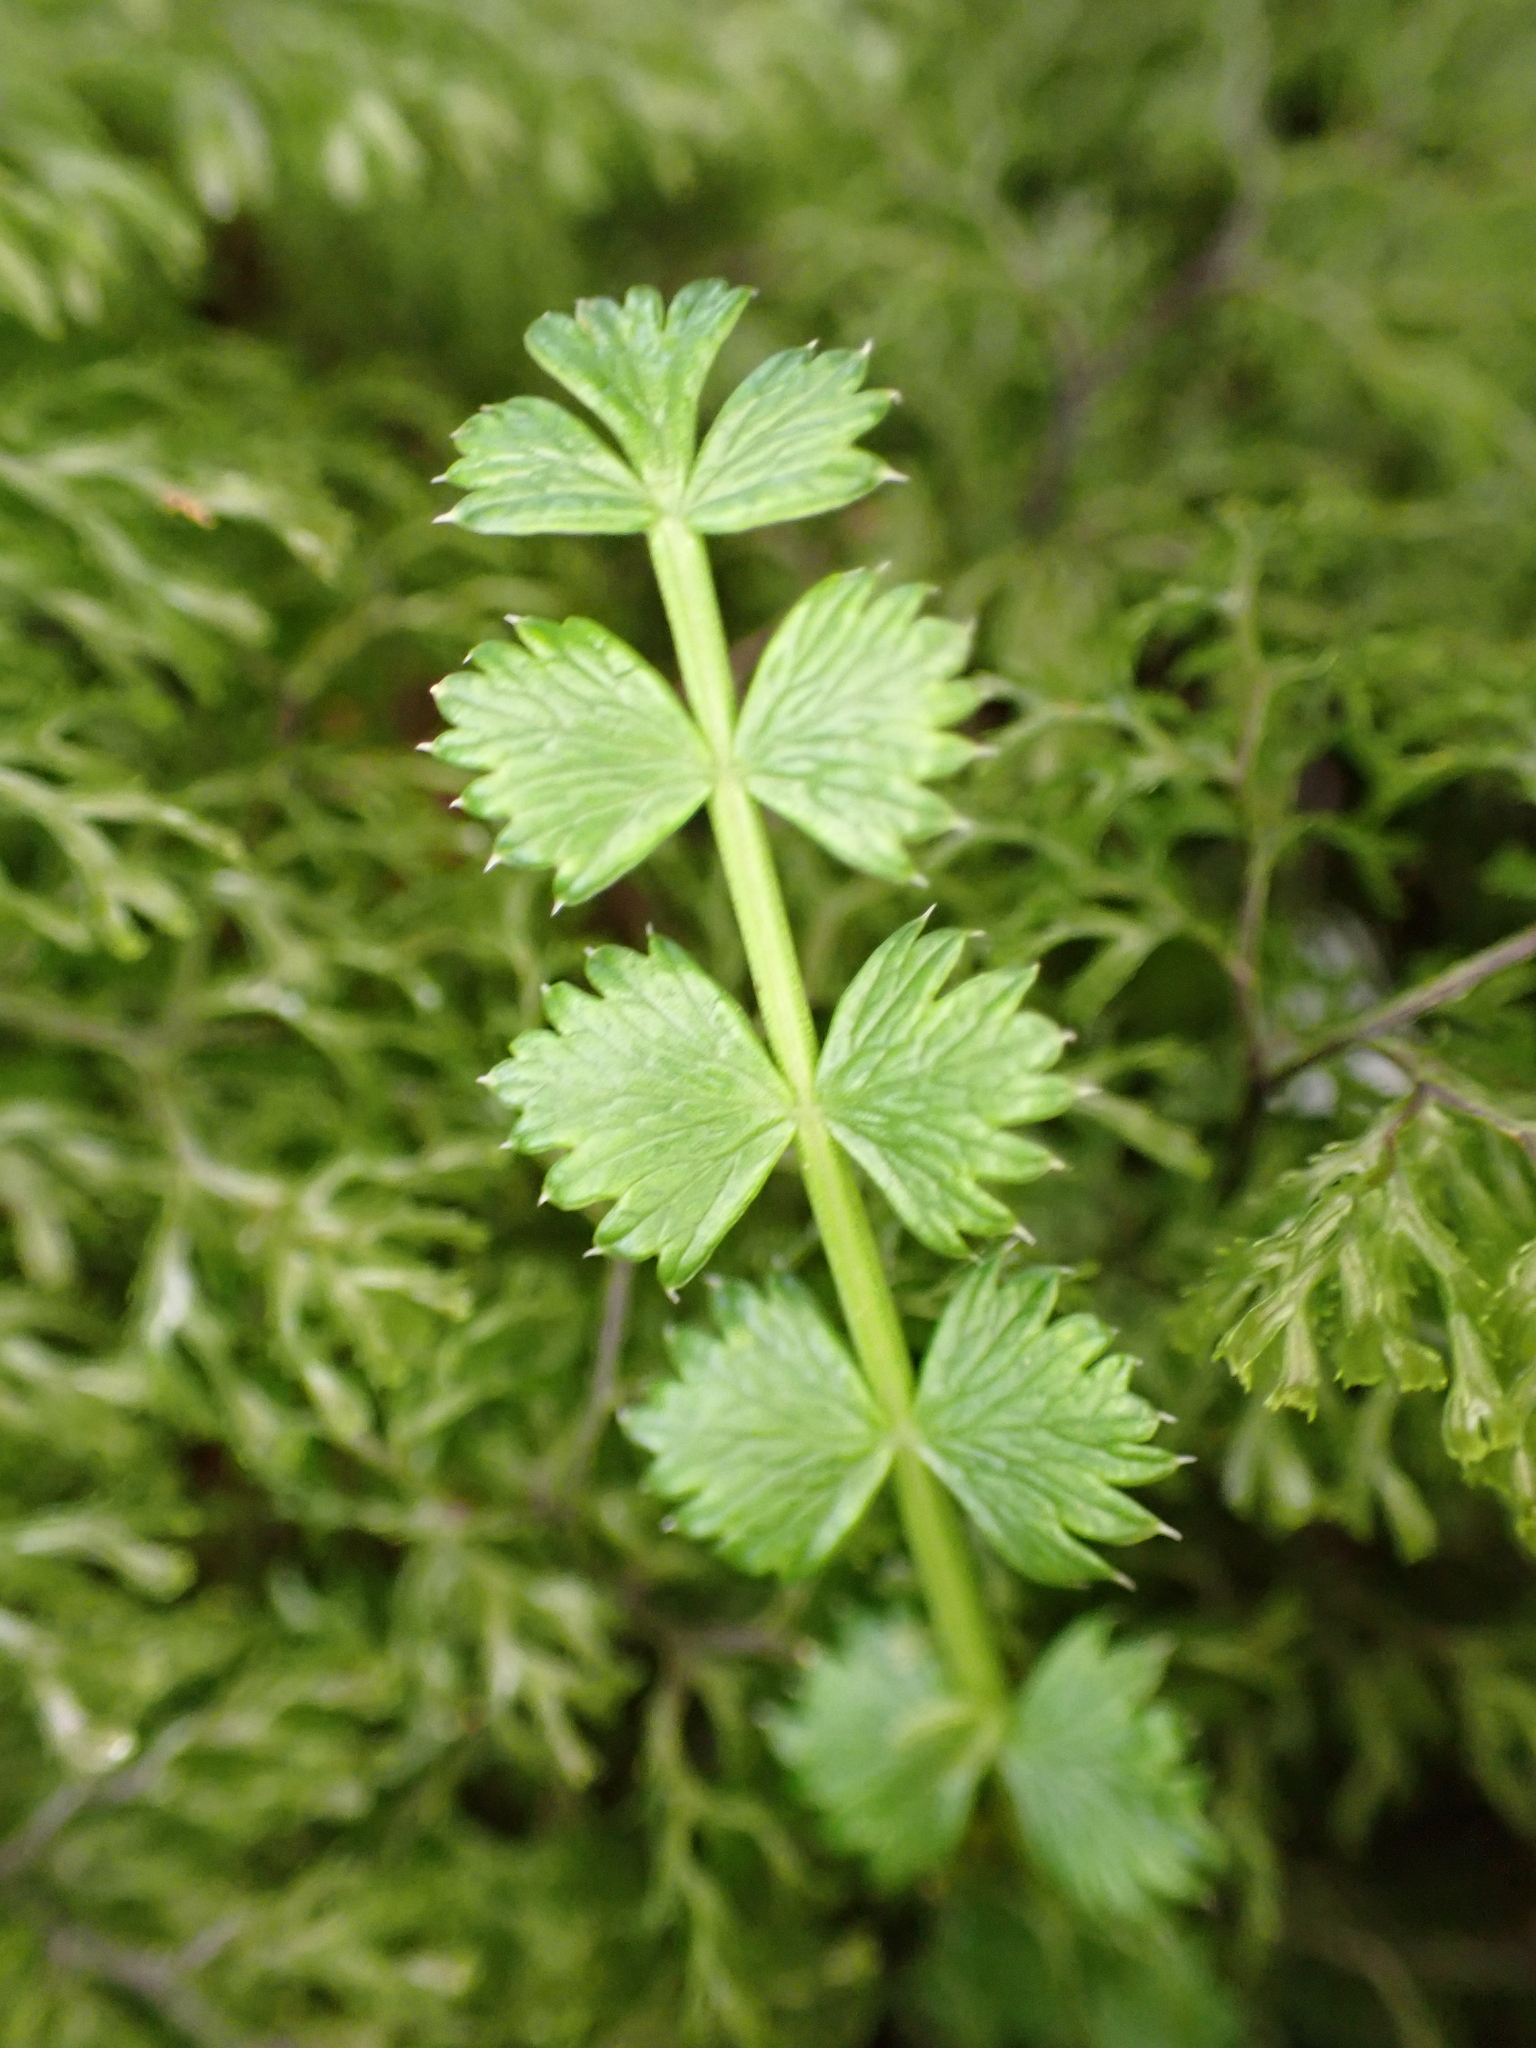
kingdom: Plantae
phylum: Tracheophyta
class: Magnoliopsida
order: Apiales
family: Apiaceae
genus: Anisotome
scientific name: Anisotome aromatica
